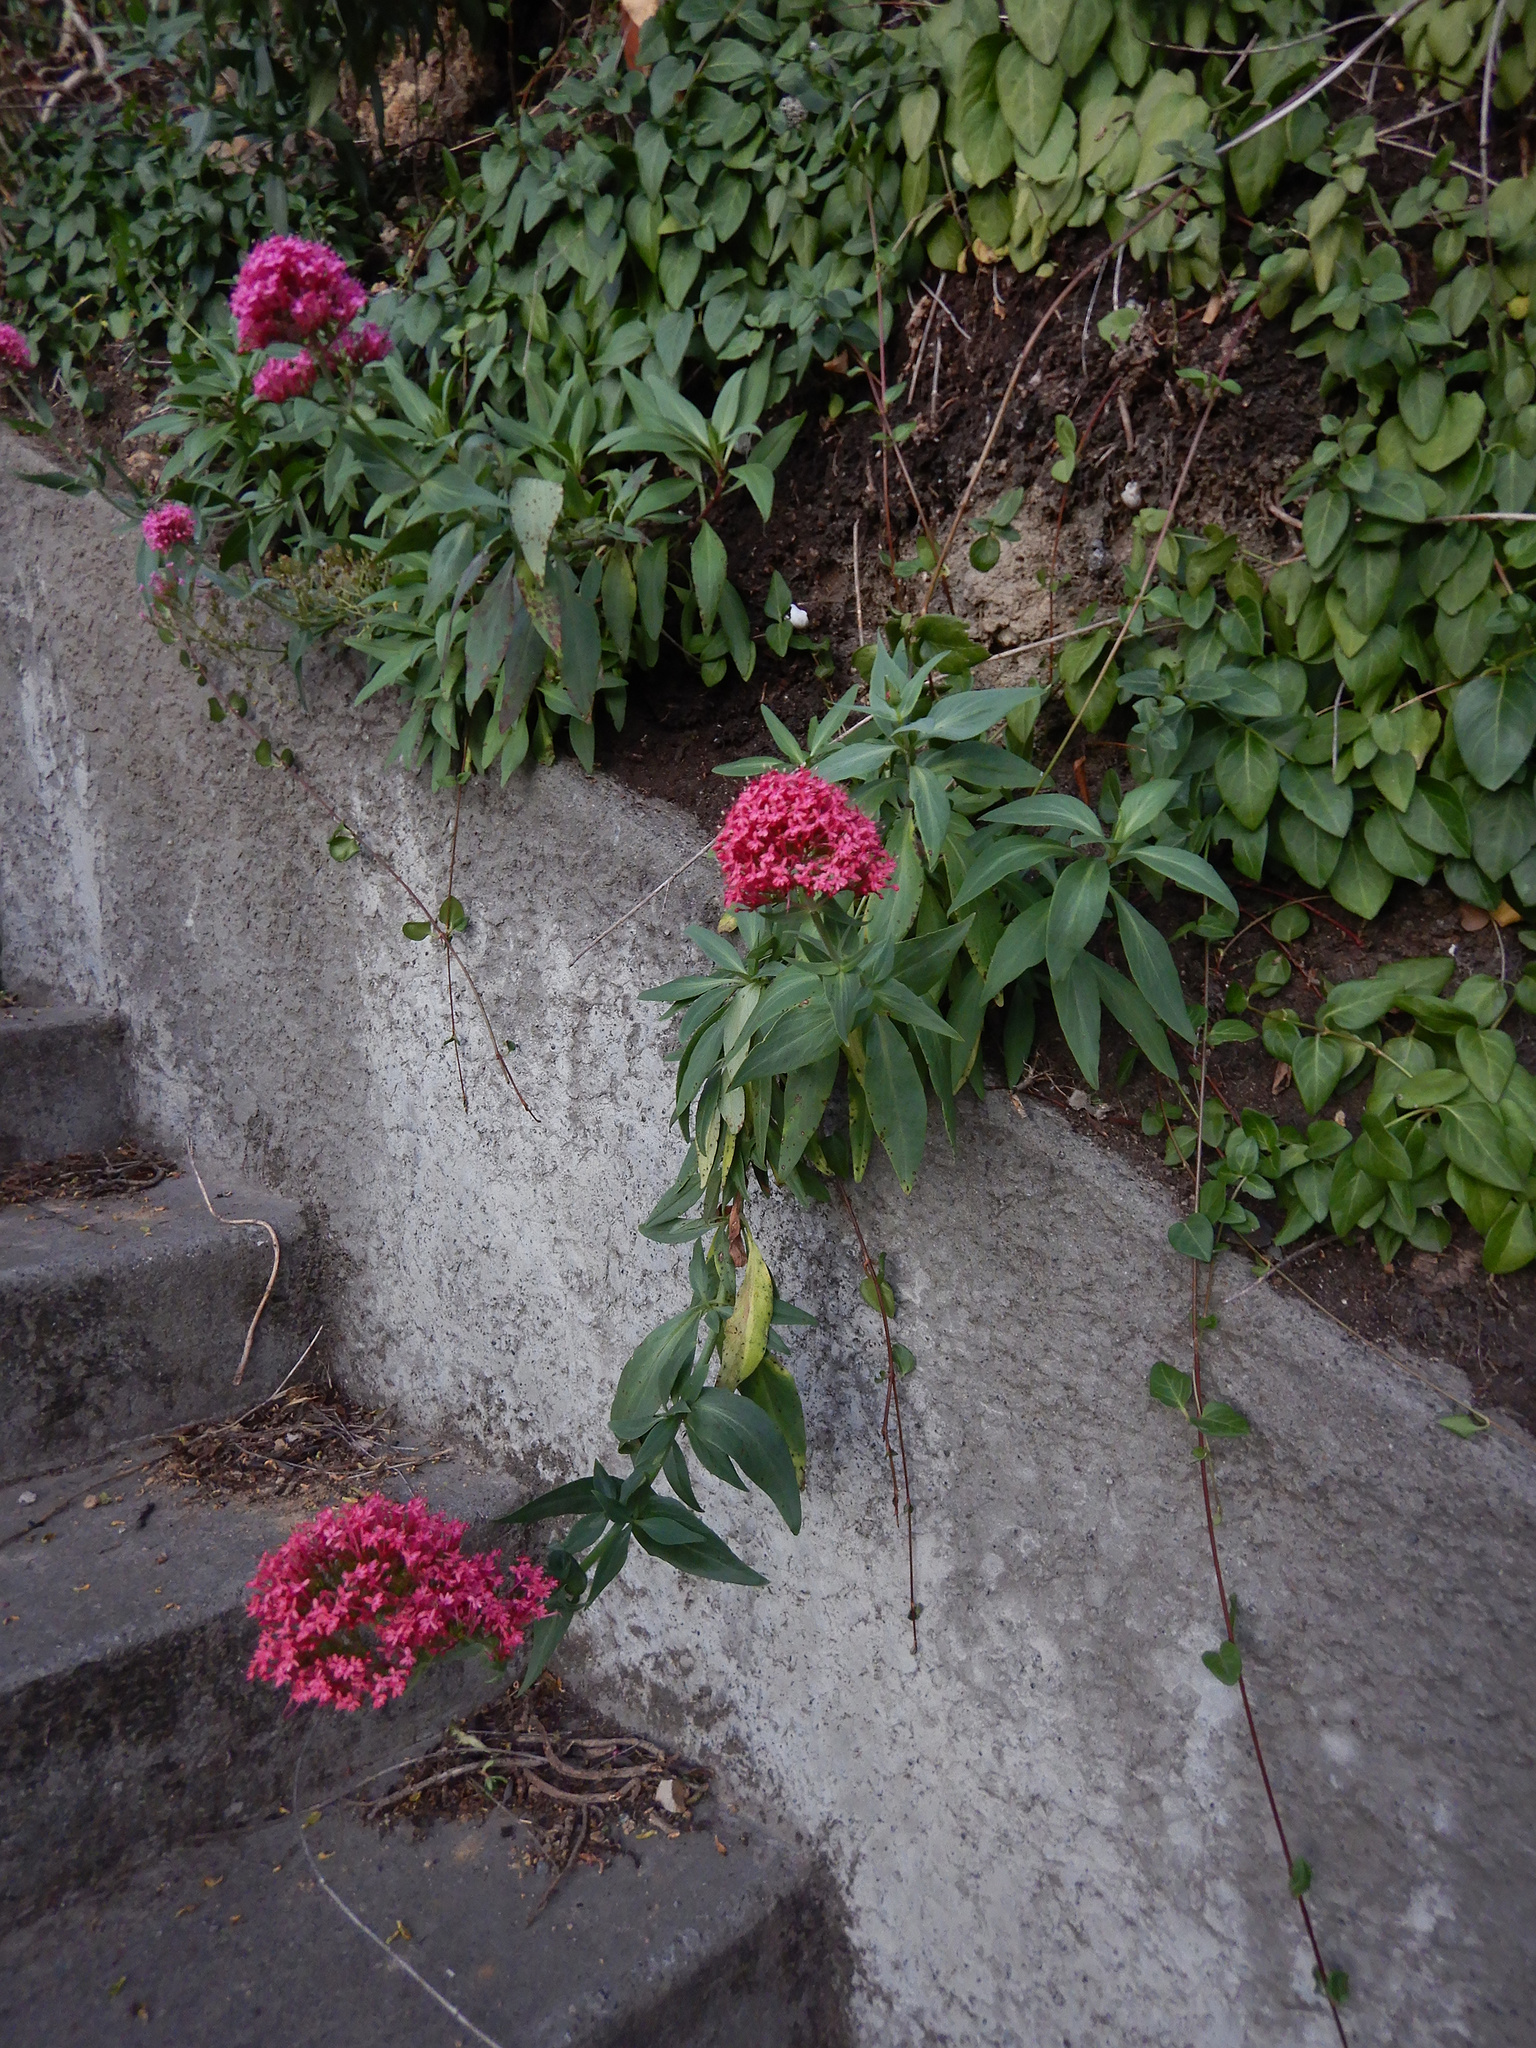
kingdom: Plantae
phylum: Tracheophyta
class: Magnoliopsida
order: Dipsacales
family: Caprifoliaceae
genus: Centranthus
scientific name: Centranthus ruber
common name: Red valerian
